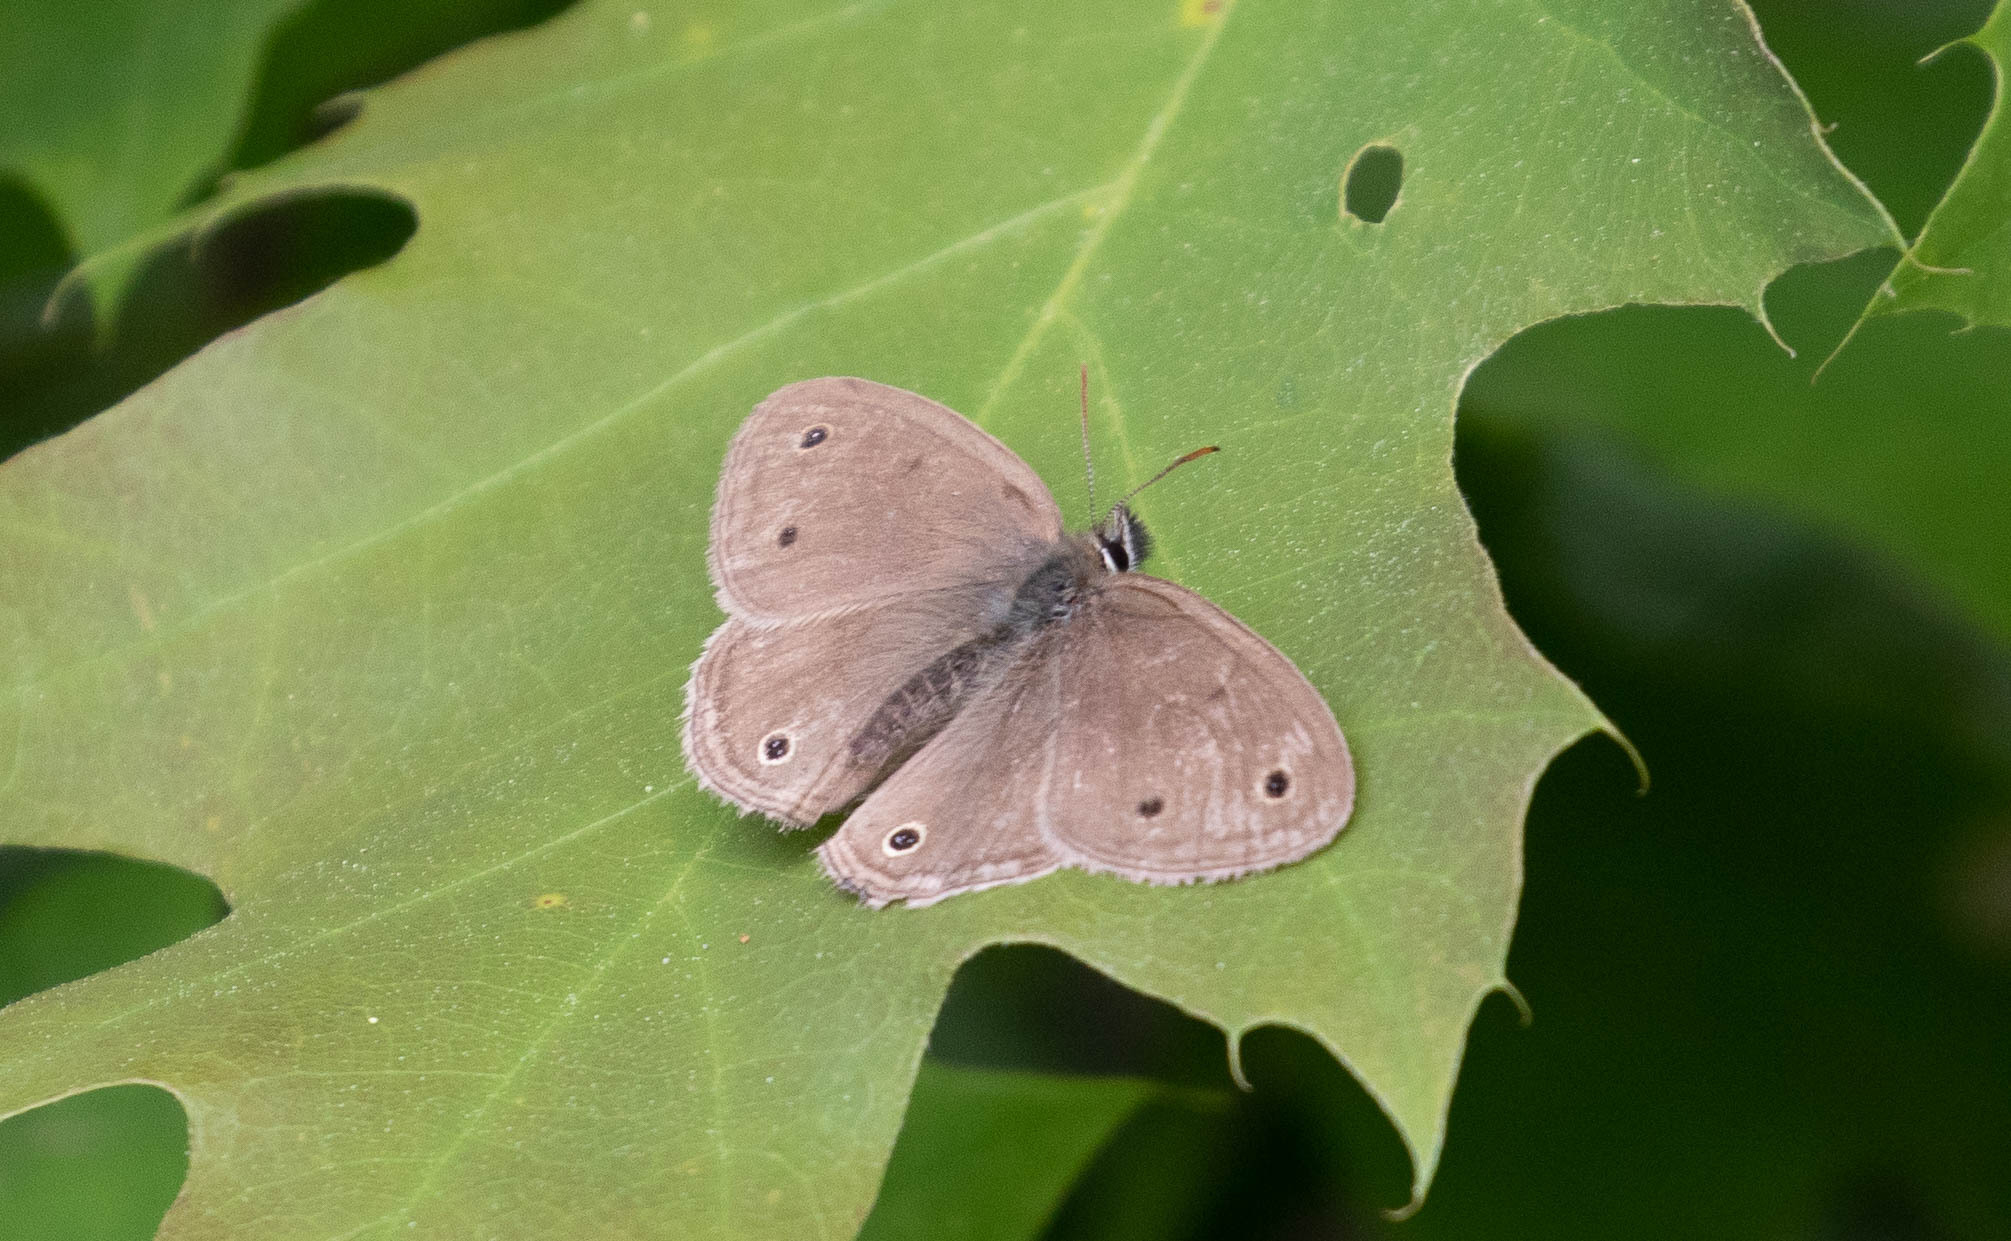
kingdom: Animalia
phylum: Arthropoda
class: Insecta
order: Lepidoptera
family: Nymphalidae
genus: Euptychia
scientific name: Euptychia cymela
